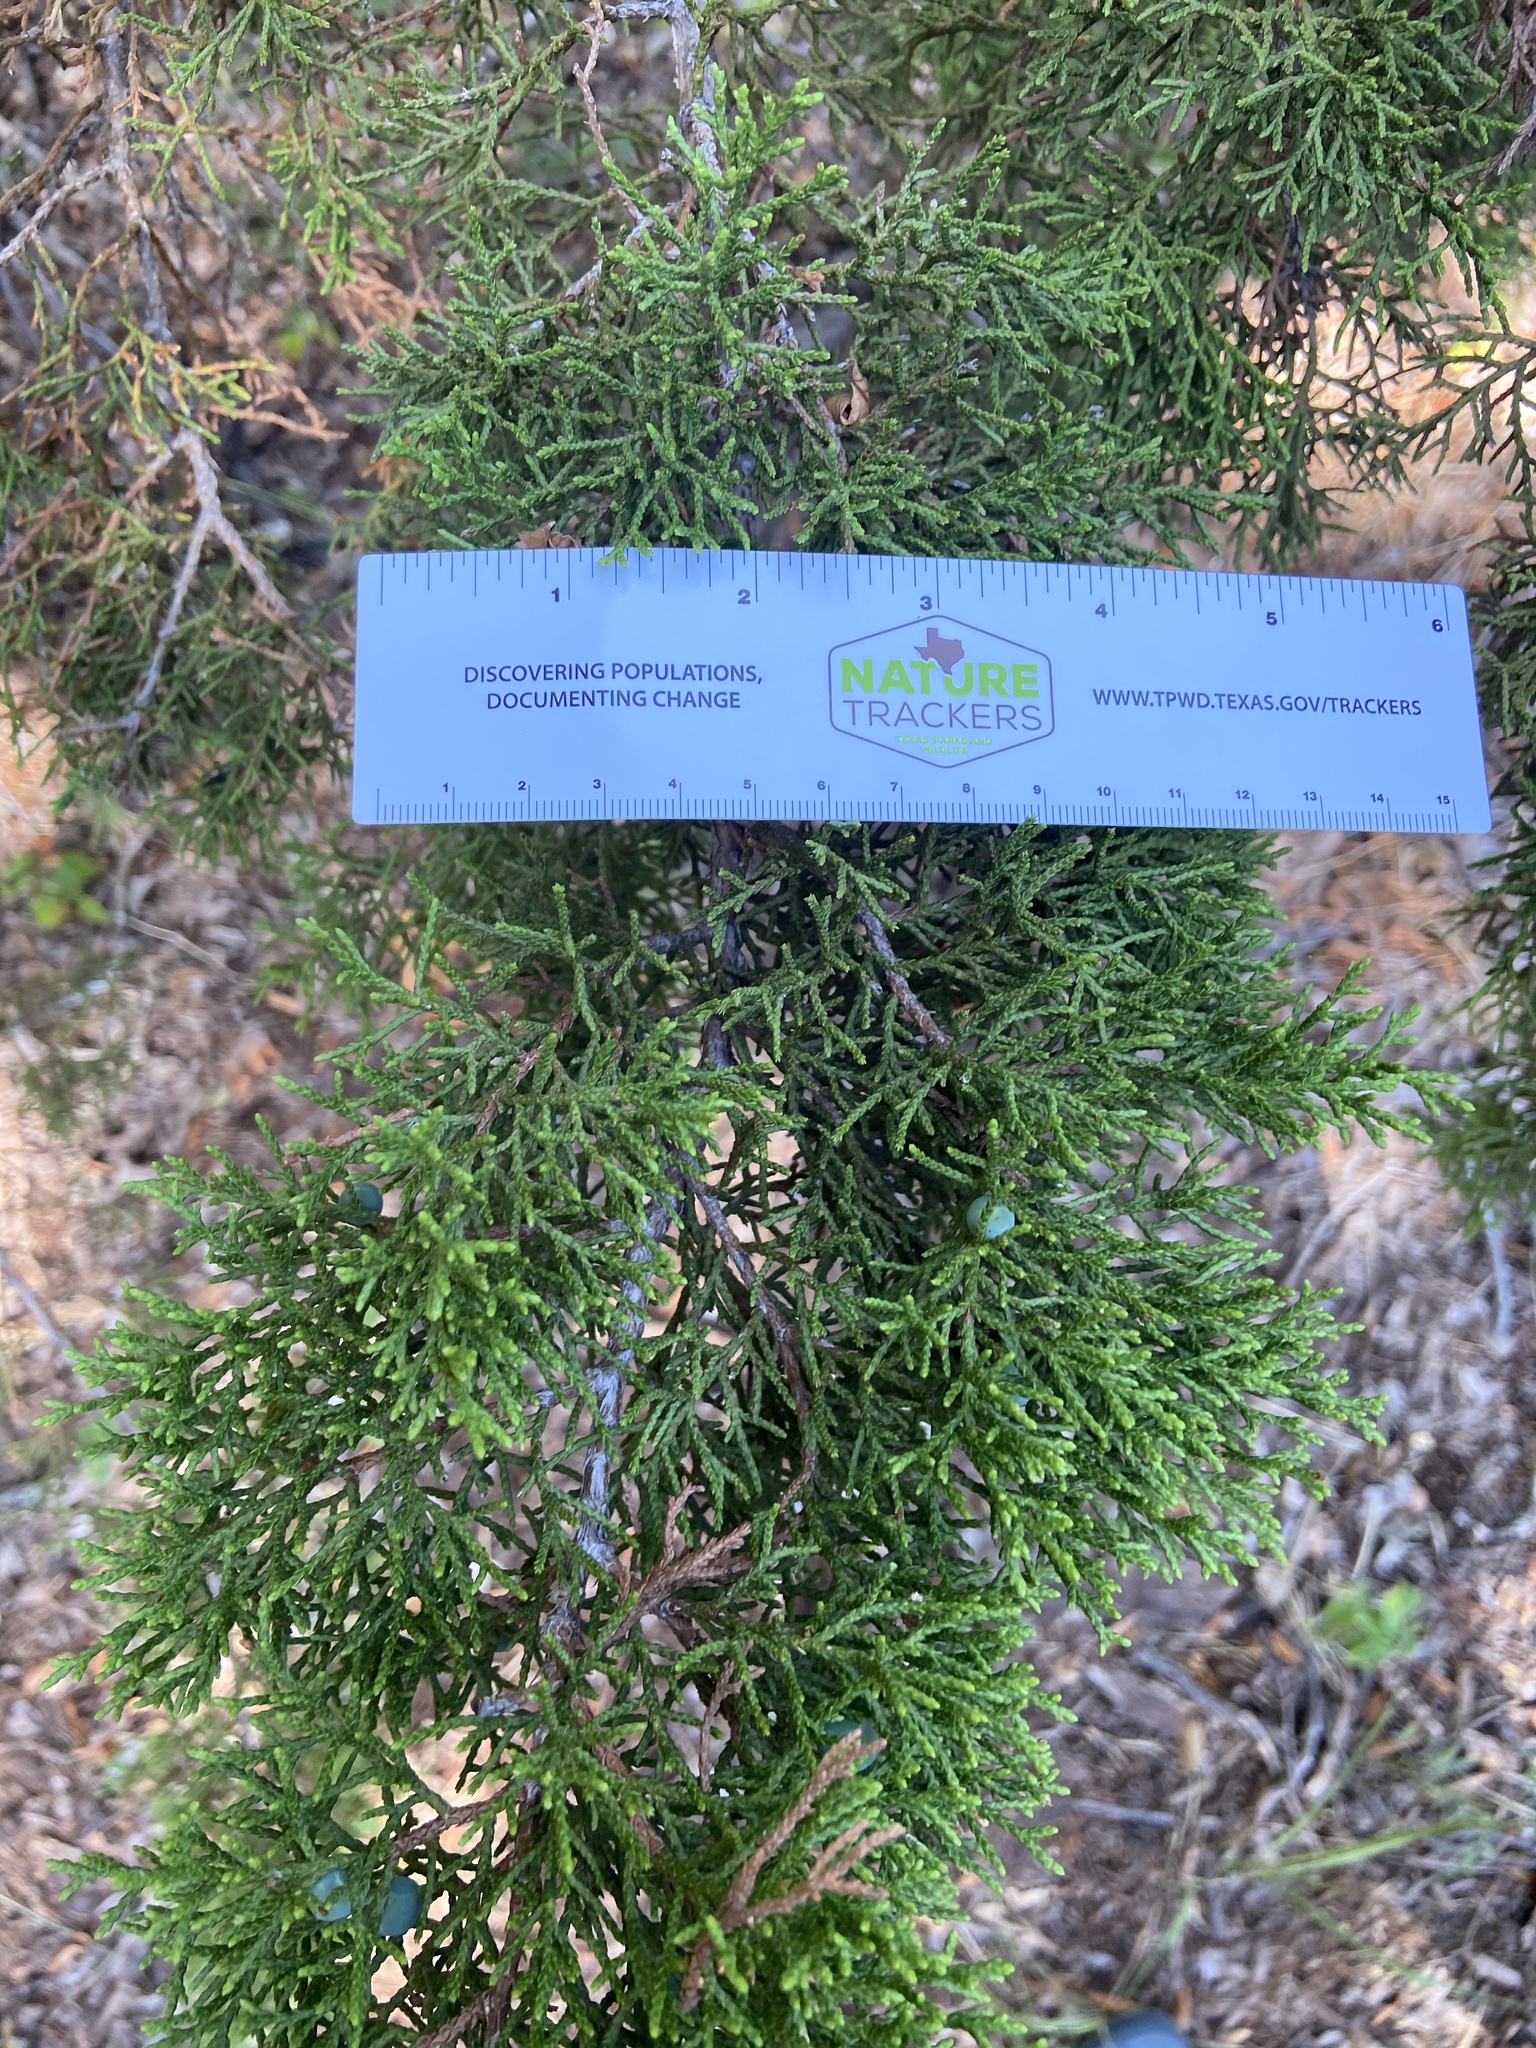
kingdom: Plantae
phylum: Tracheophyta
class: Pinopsida
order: Pinales
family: Cupressaceae
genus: Juniperus
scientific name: Juniperus ashei
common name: Mexican juniper
